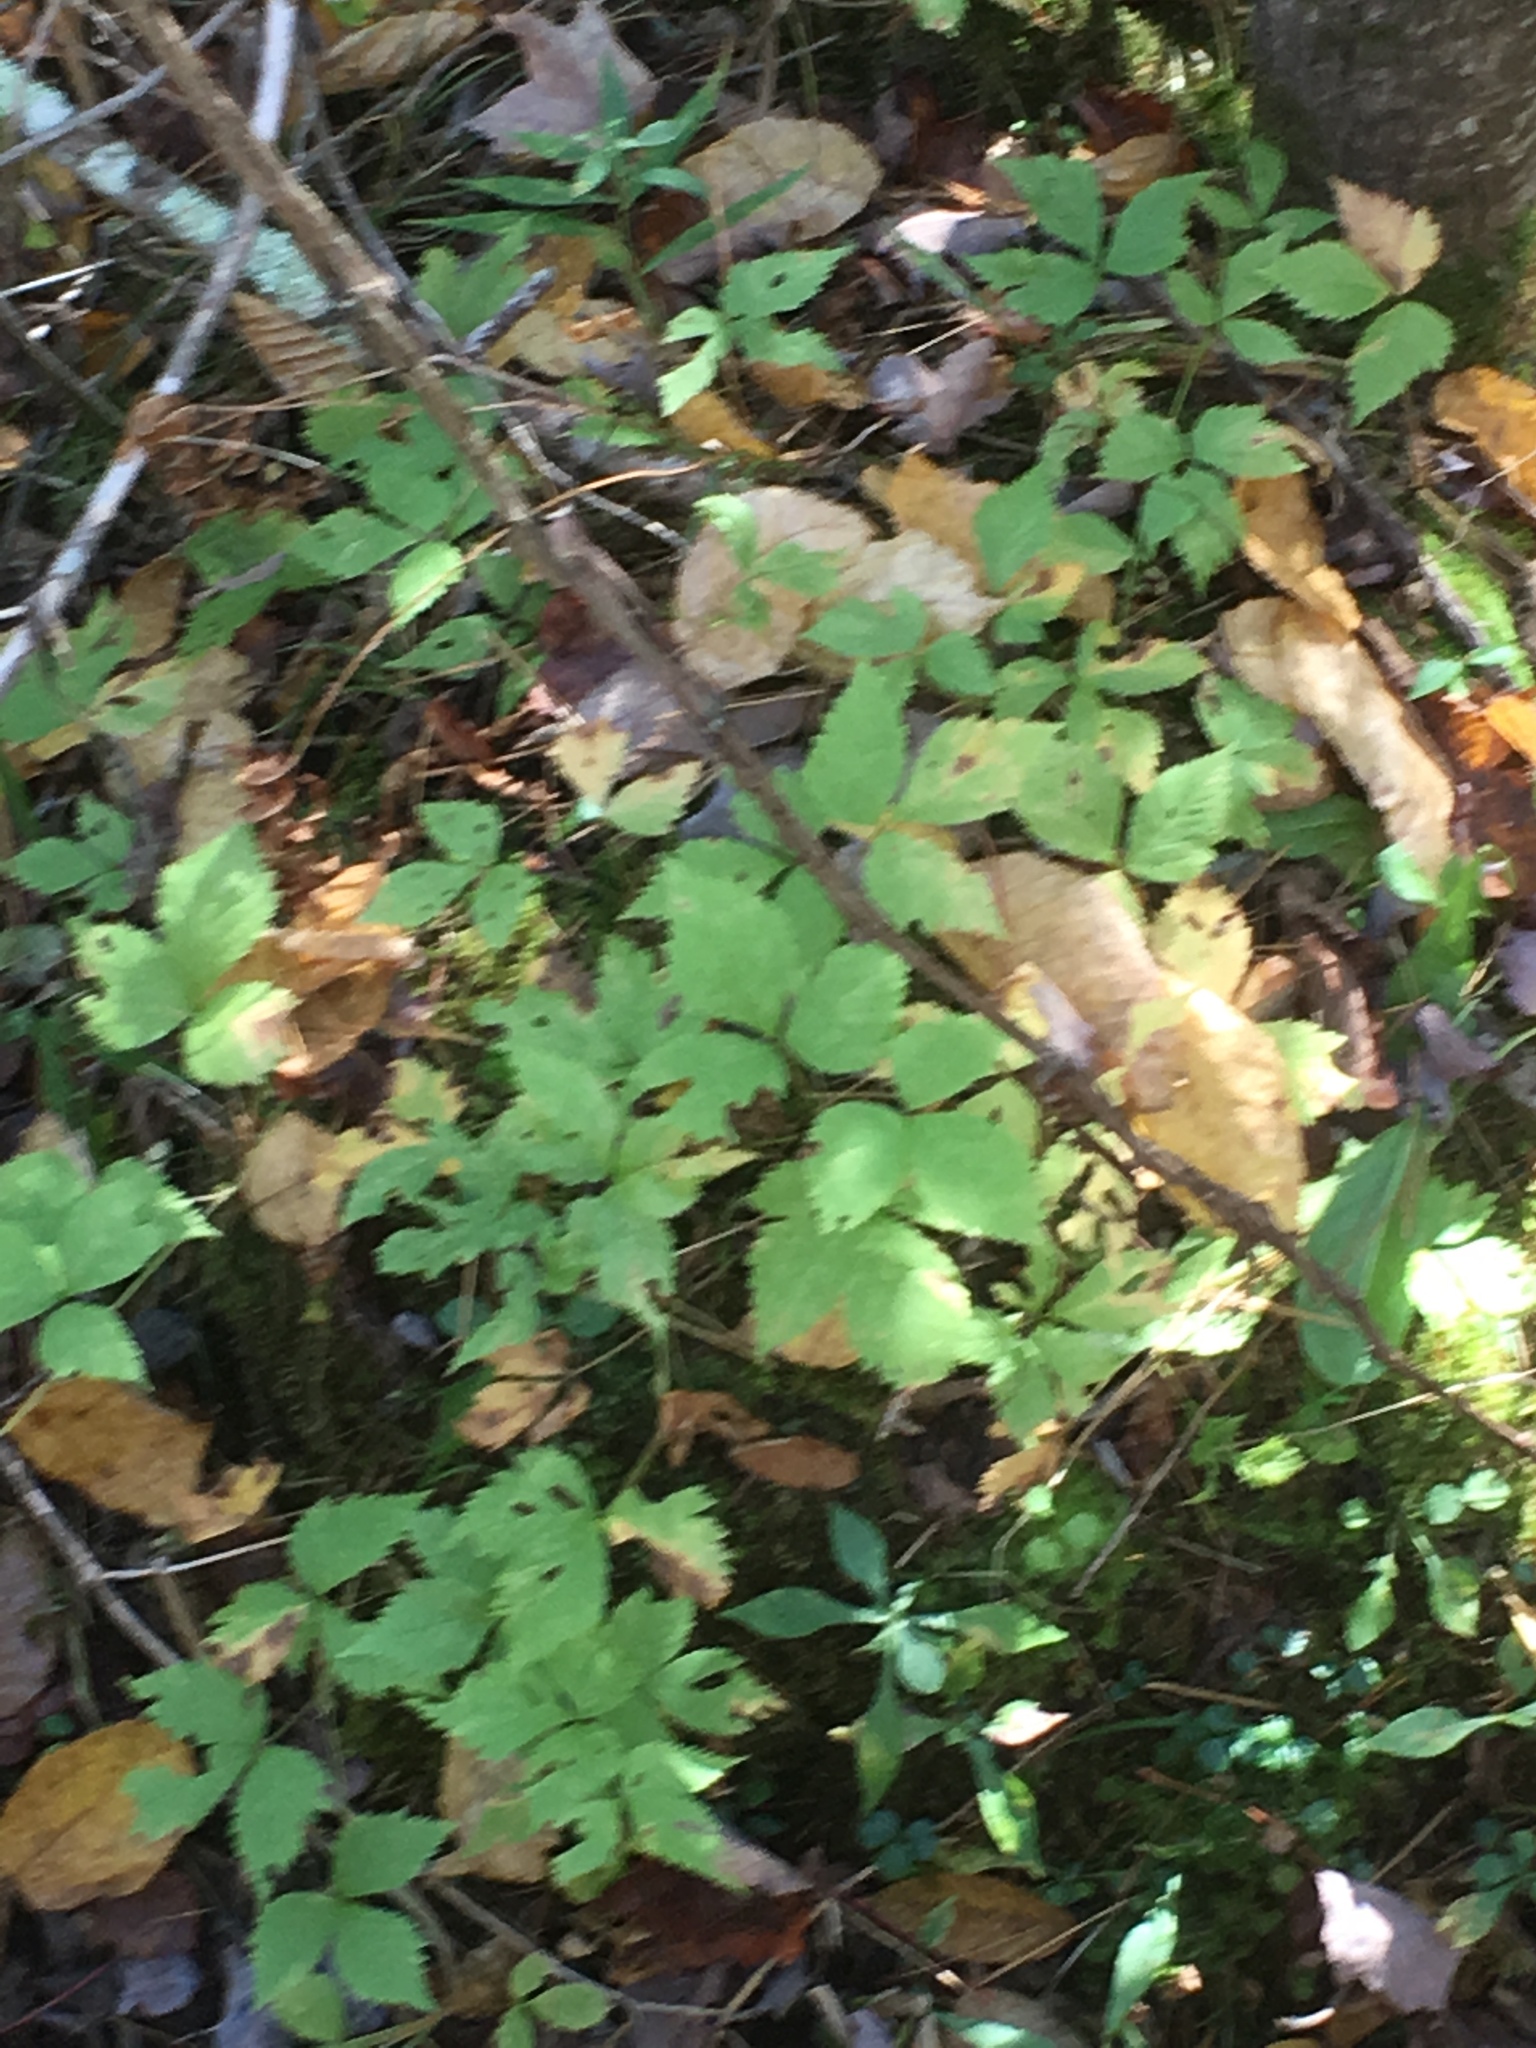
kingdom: Plantae
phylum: Tracheophyta
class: Magnoliopsida
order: Rosales
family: Rosaceae
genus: Rubus
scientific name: Rubus pubescens
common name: Dwarf raspberry
